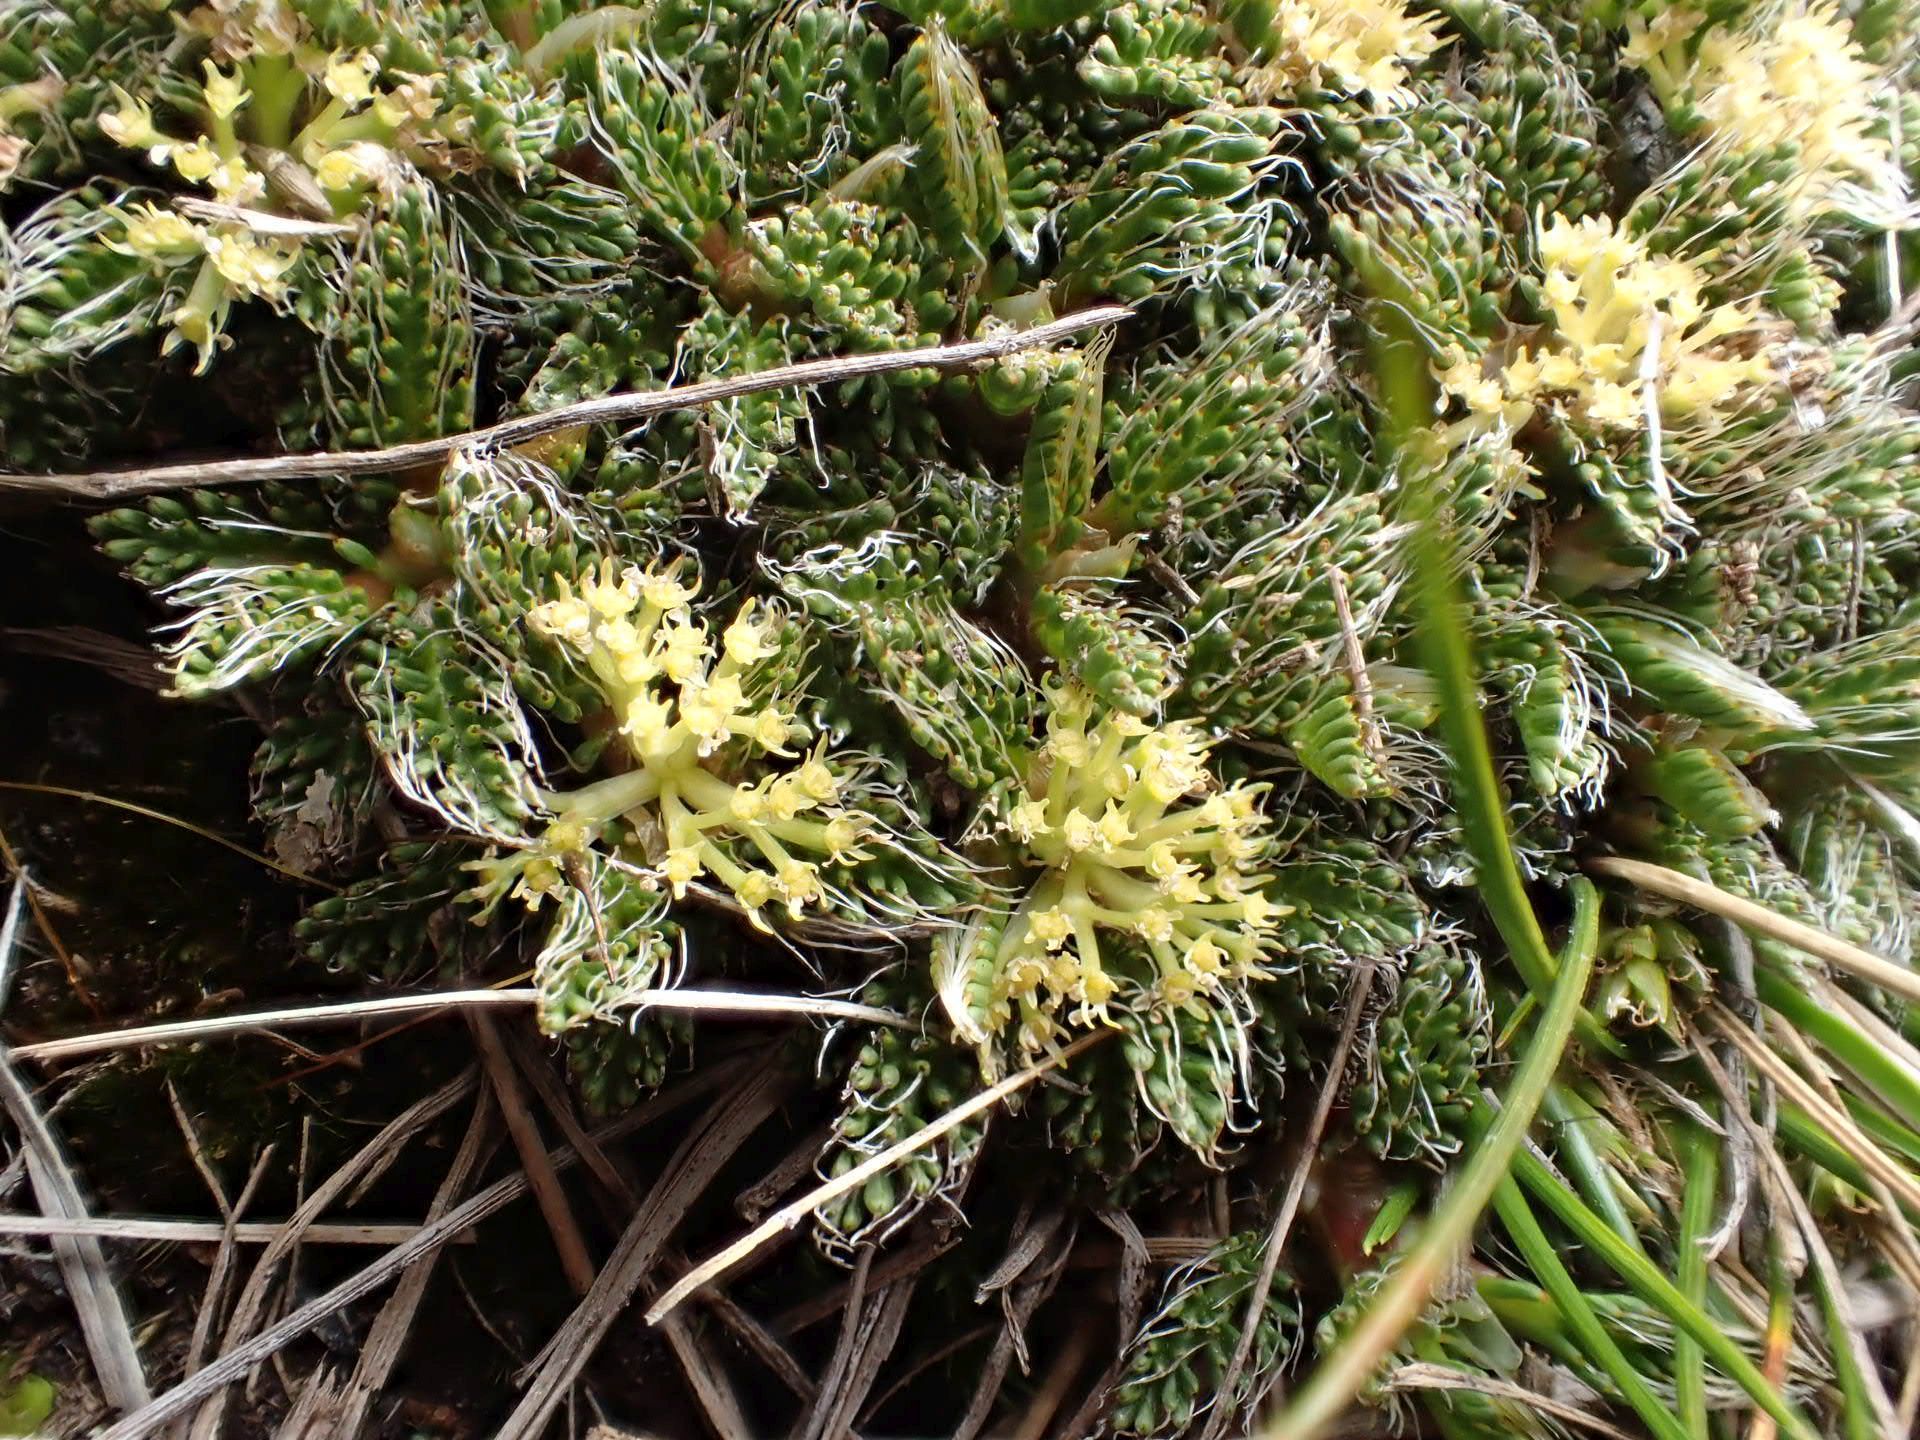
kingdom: Plantae
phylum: Tracheophyta
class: Magnoliopsida
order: Apiales
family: Apiaceae
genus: Anisotome
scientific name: Anisotome imbricata
